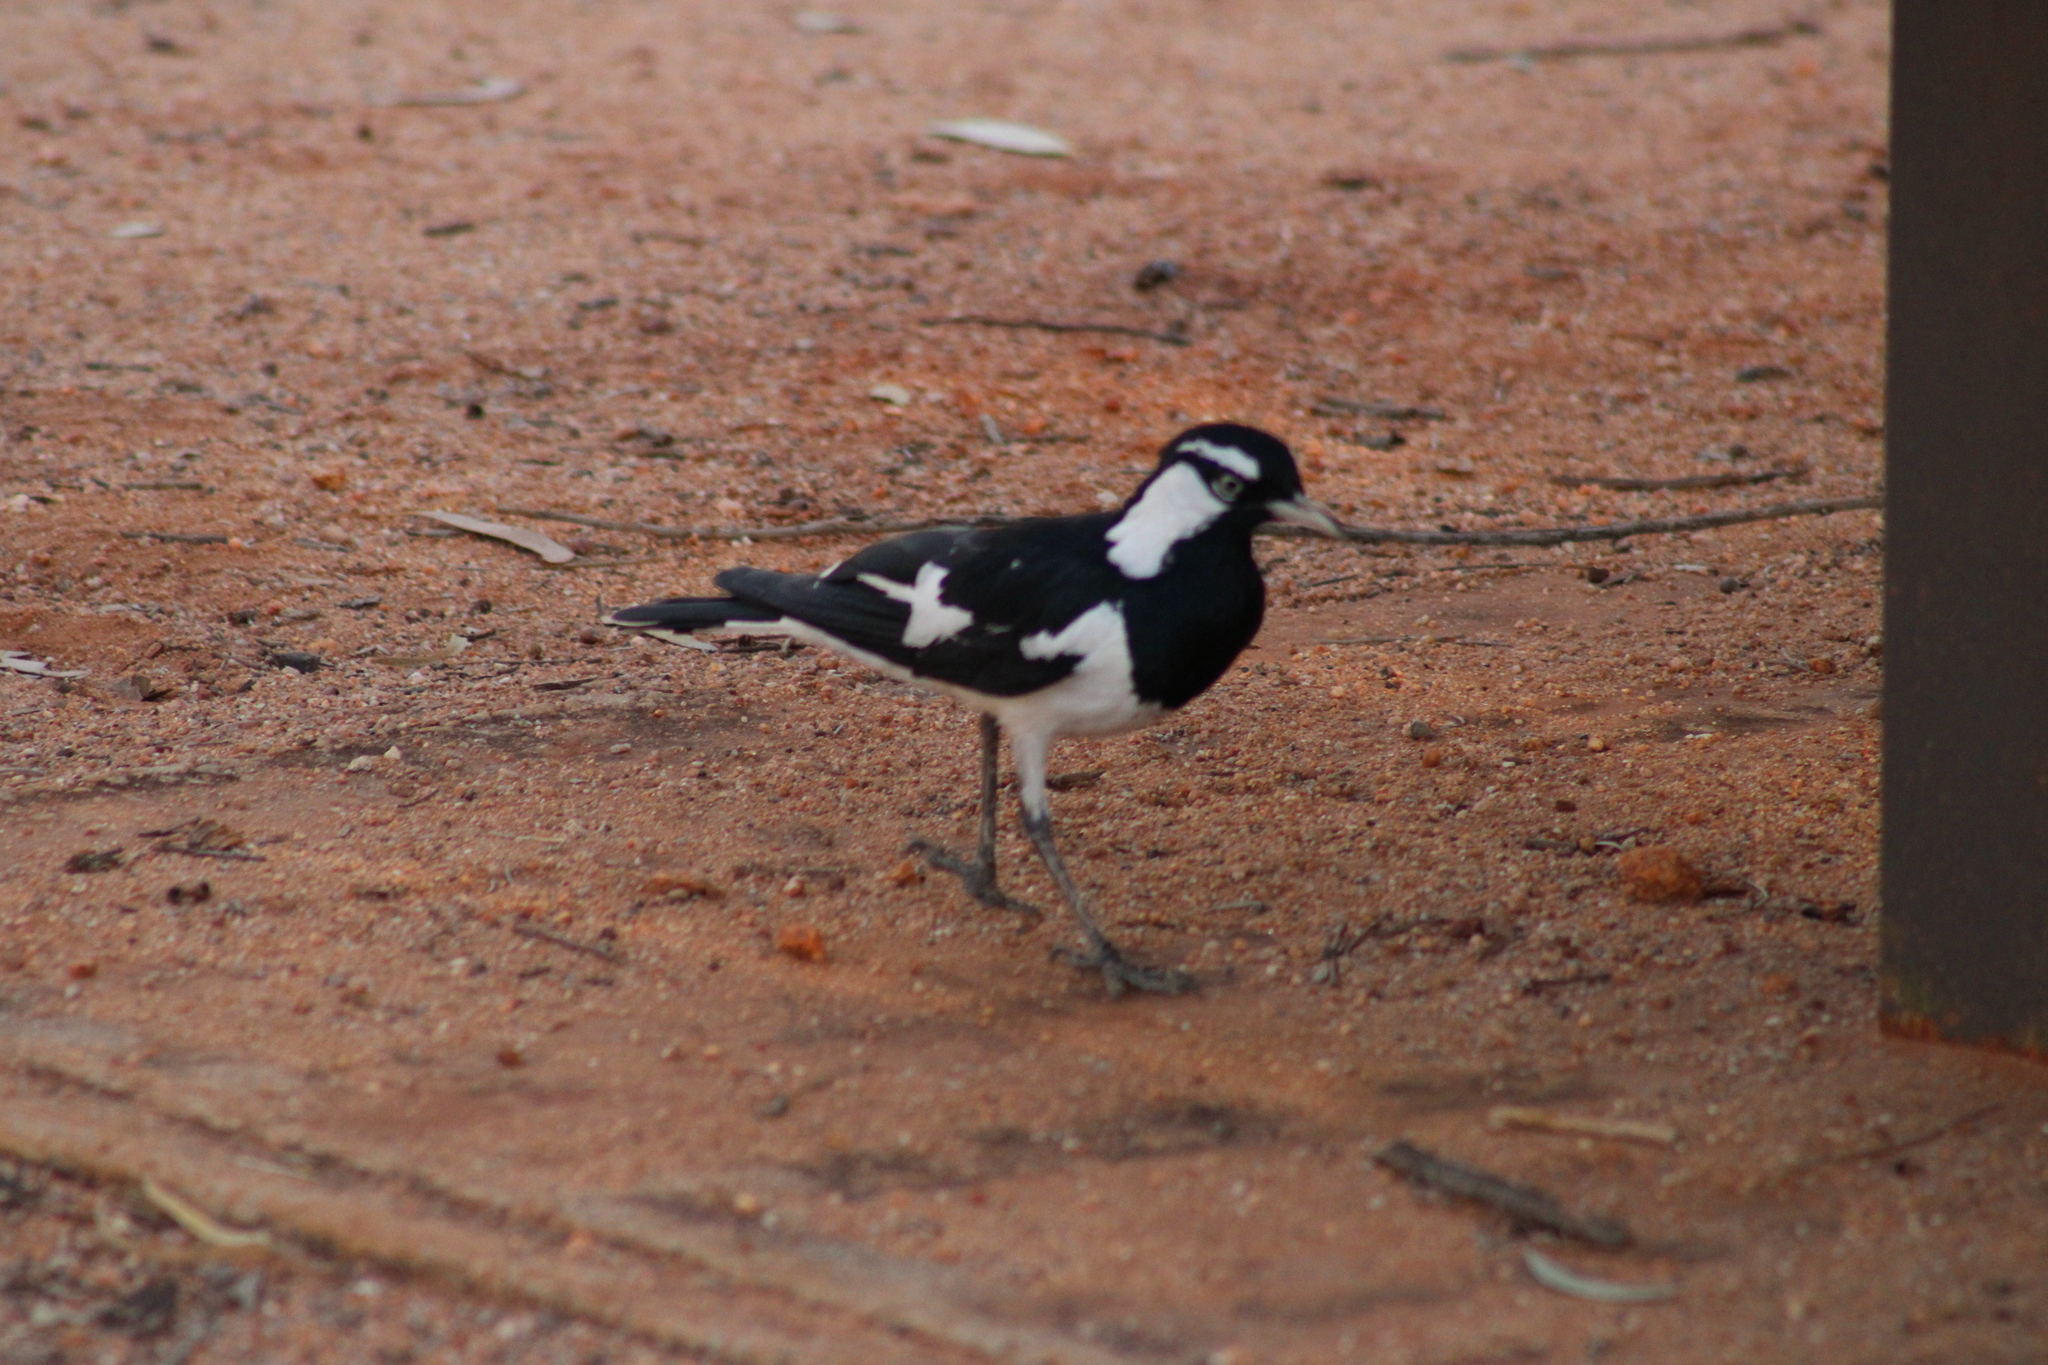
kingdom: Animalia
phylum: Chordata
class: Aves
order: Passeriformes
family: Monarchidae
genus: Grallina
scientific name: Grallina cyanoleuca
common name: Magpie-lark
